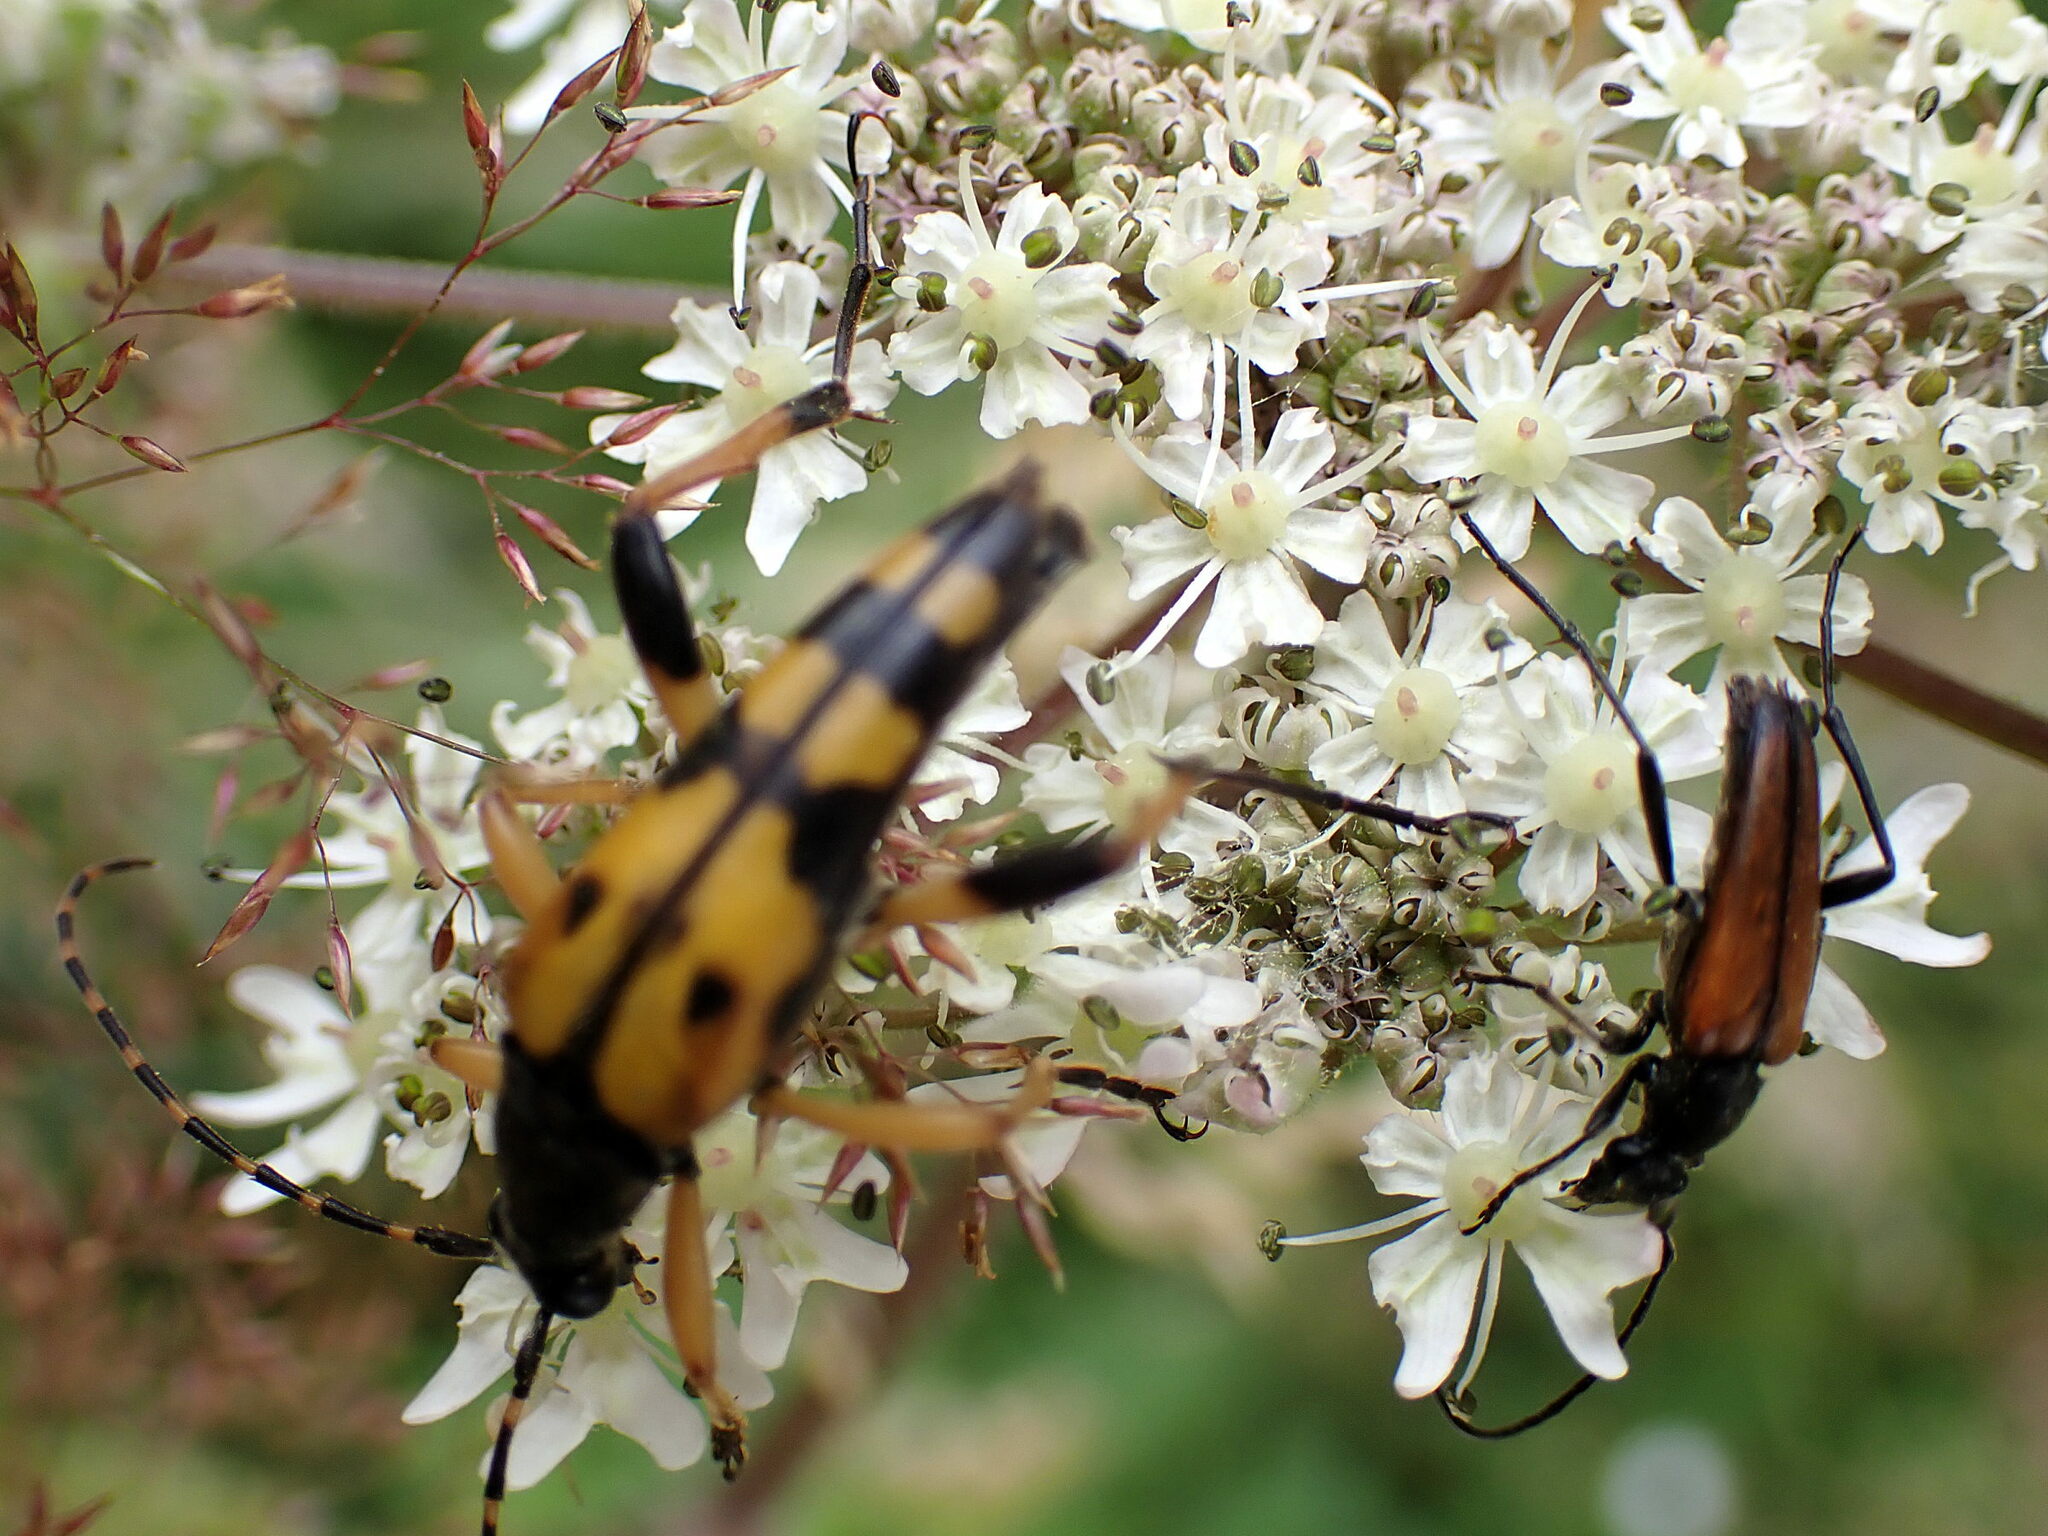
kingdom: Animalia
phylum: Arthropoda
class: Insecta
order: Coleoptera
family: Cerambycidae
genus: Rutpela
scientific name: Rutpela maculata
